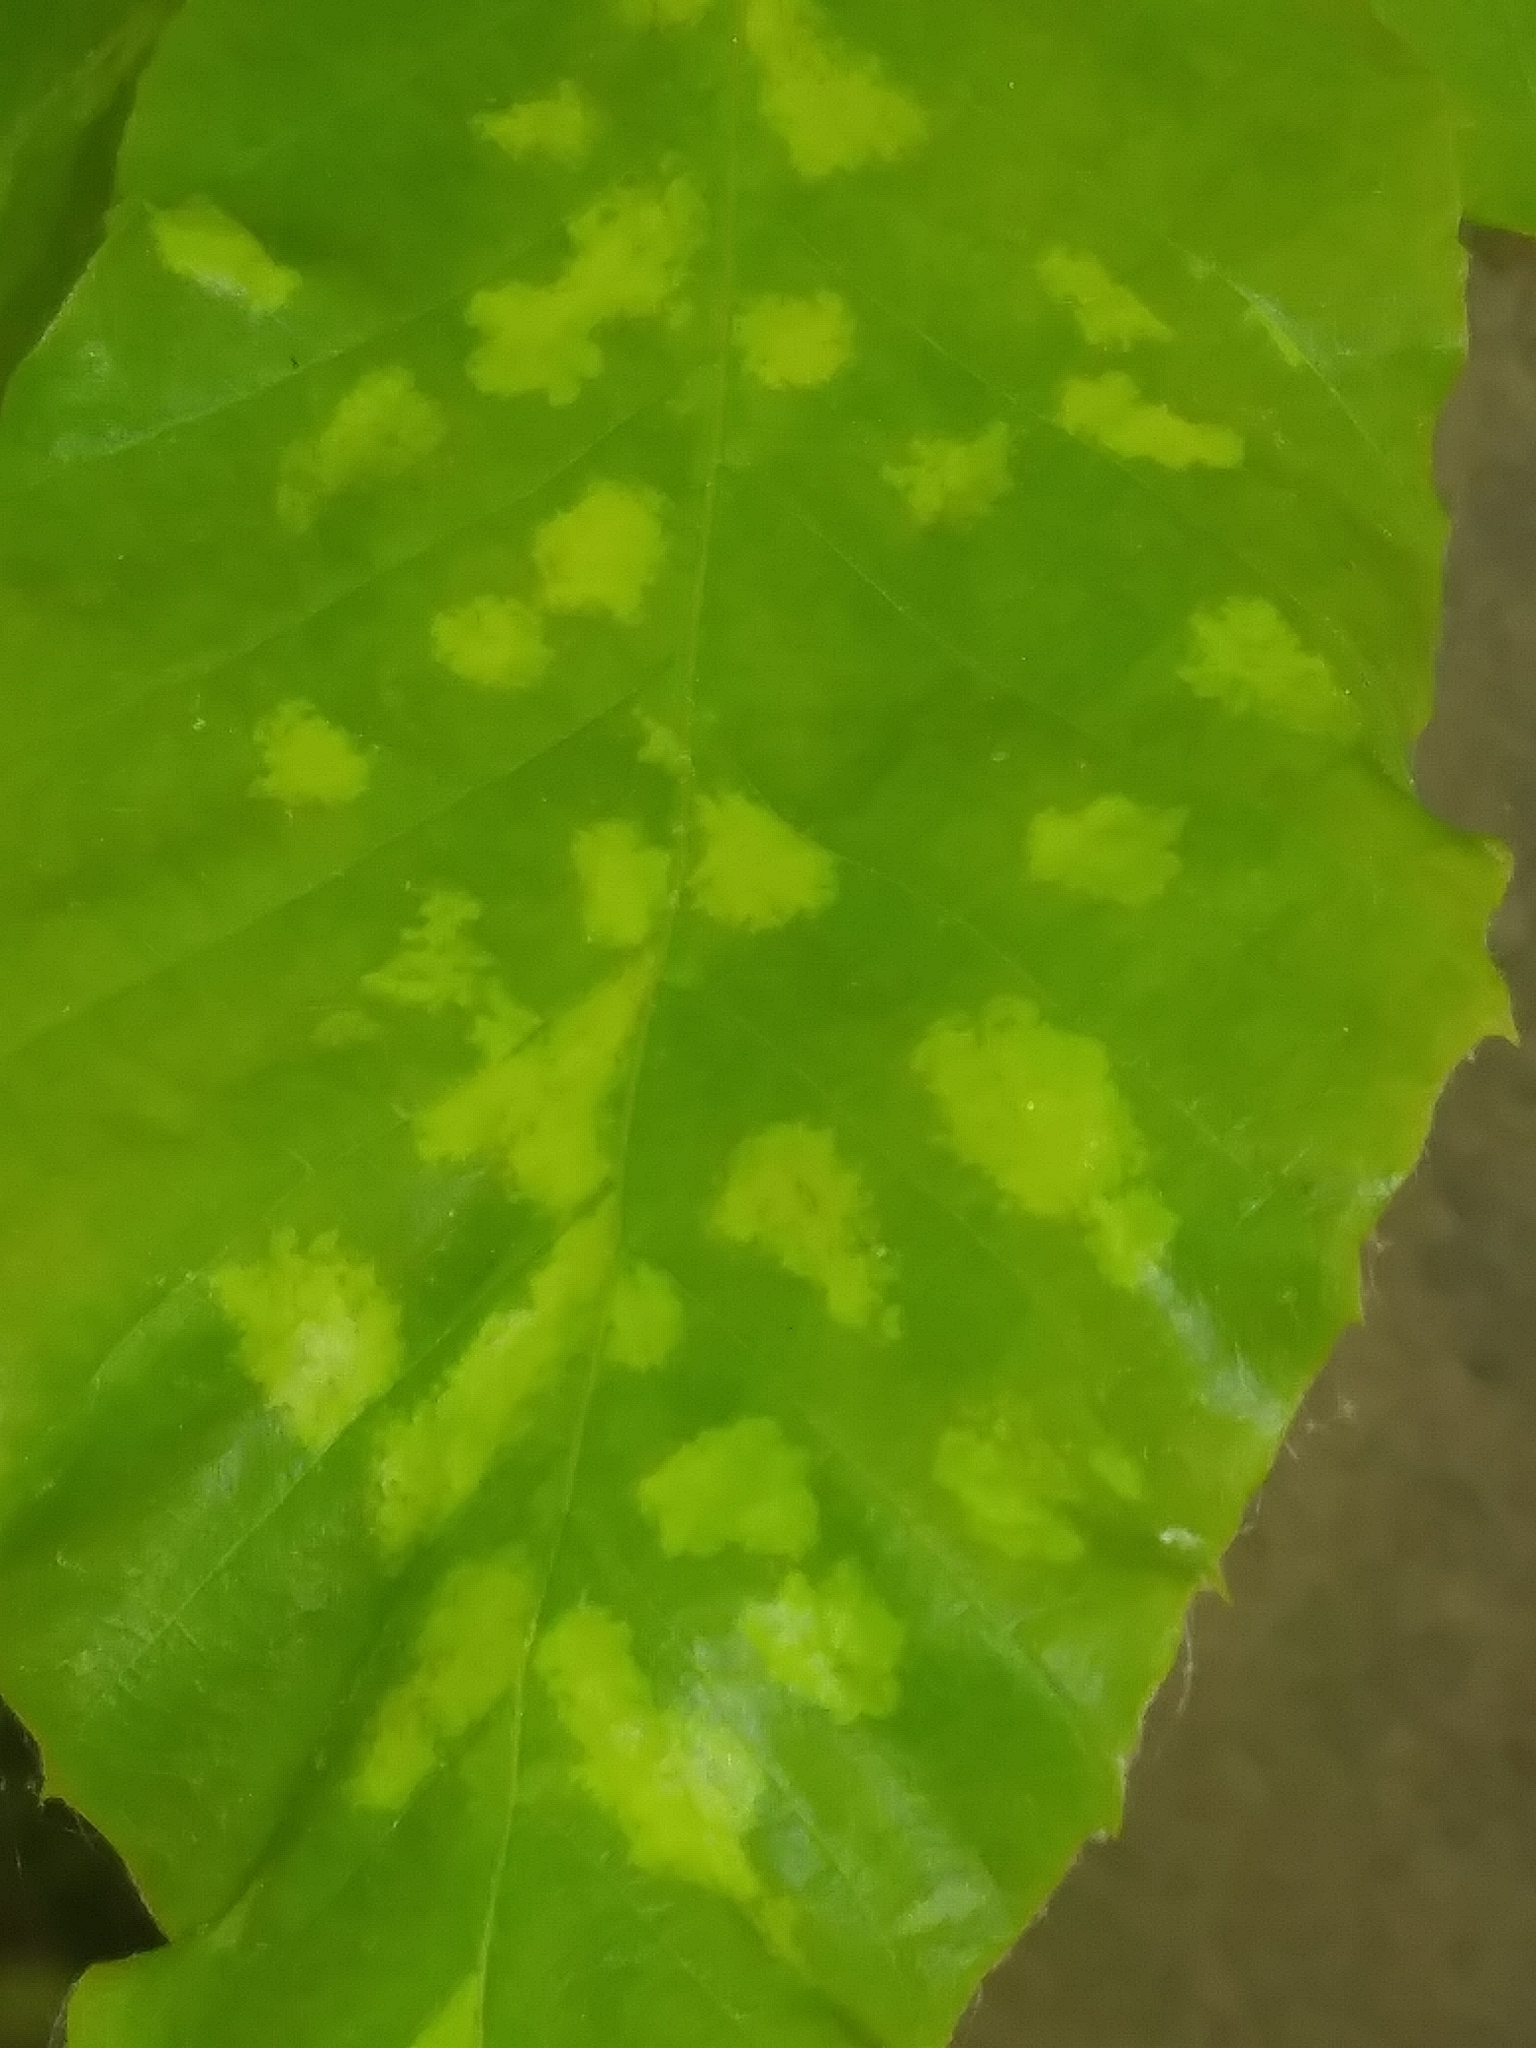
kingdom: Animalia
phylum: Arthropoda
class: Arachnida
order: Trombidiformes
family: Eriophyidae
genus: Acalitus
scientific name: Acalitus
